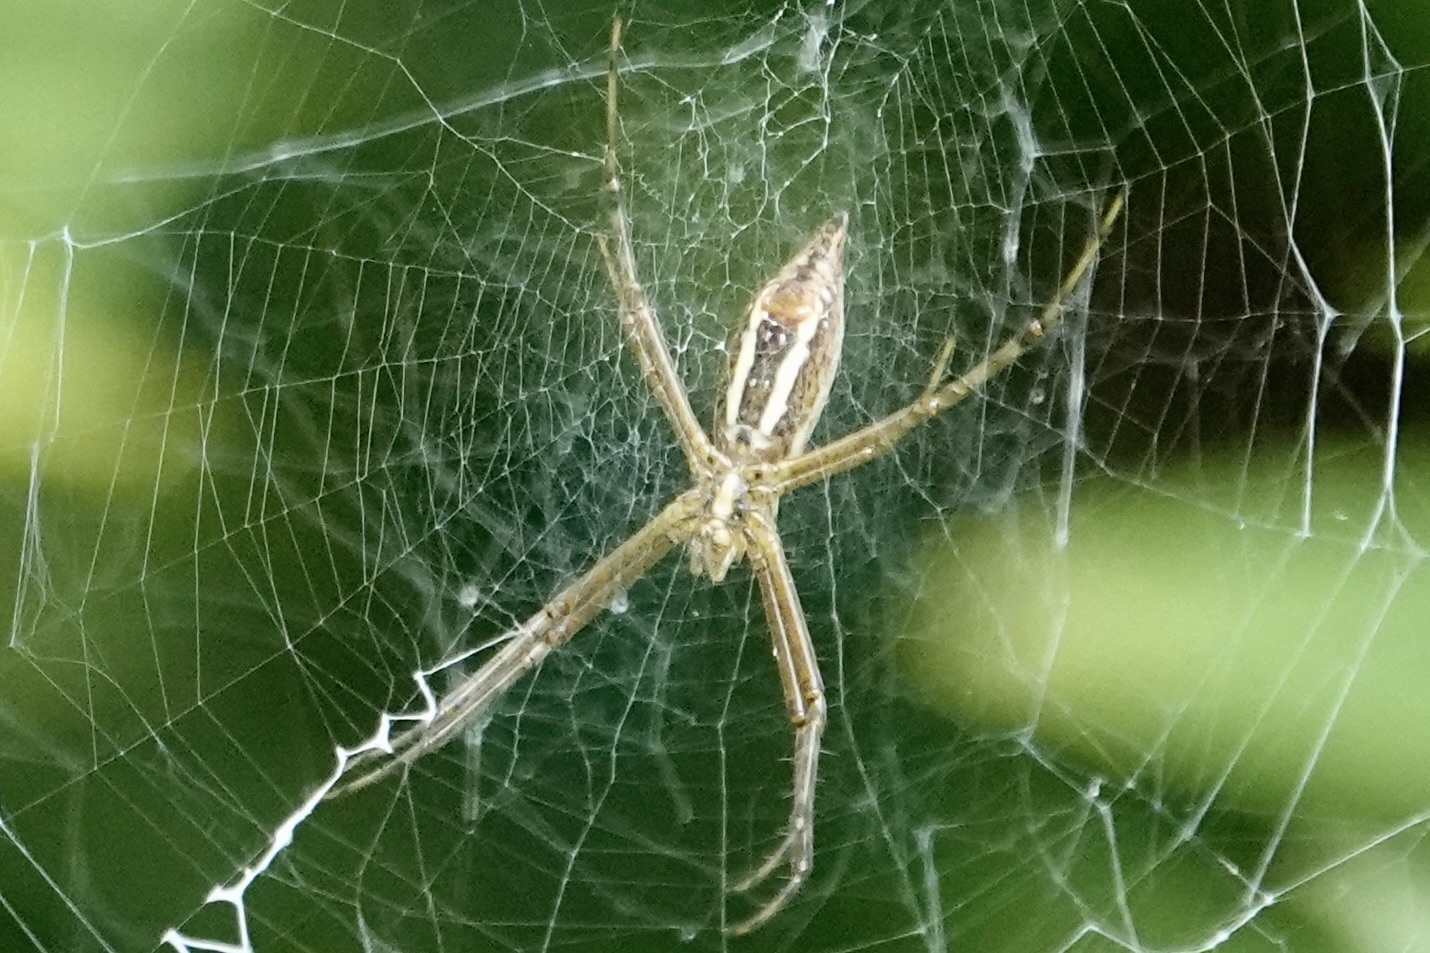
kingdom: Animalia
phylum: Arthropoda
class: Arachnida
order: Araneae
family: Araneidae
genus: Argiope
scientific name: Argiope trifasciata
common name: Banded garden spider
